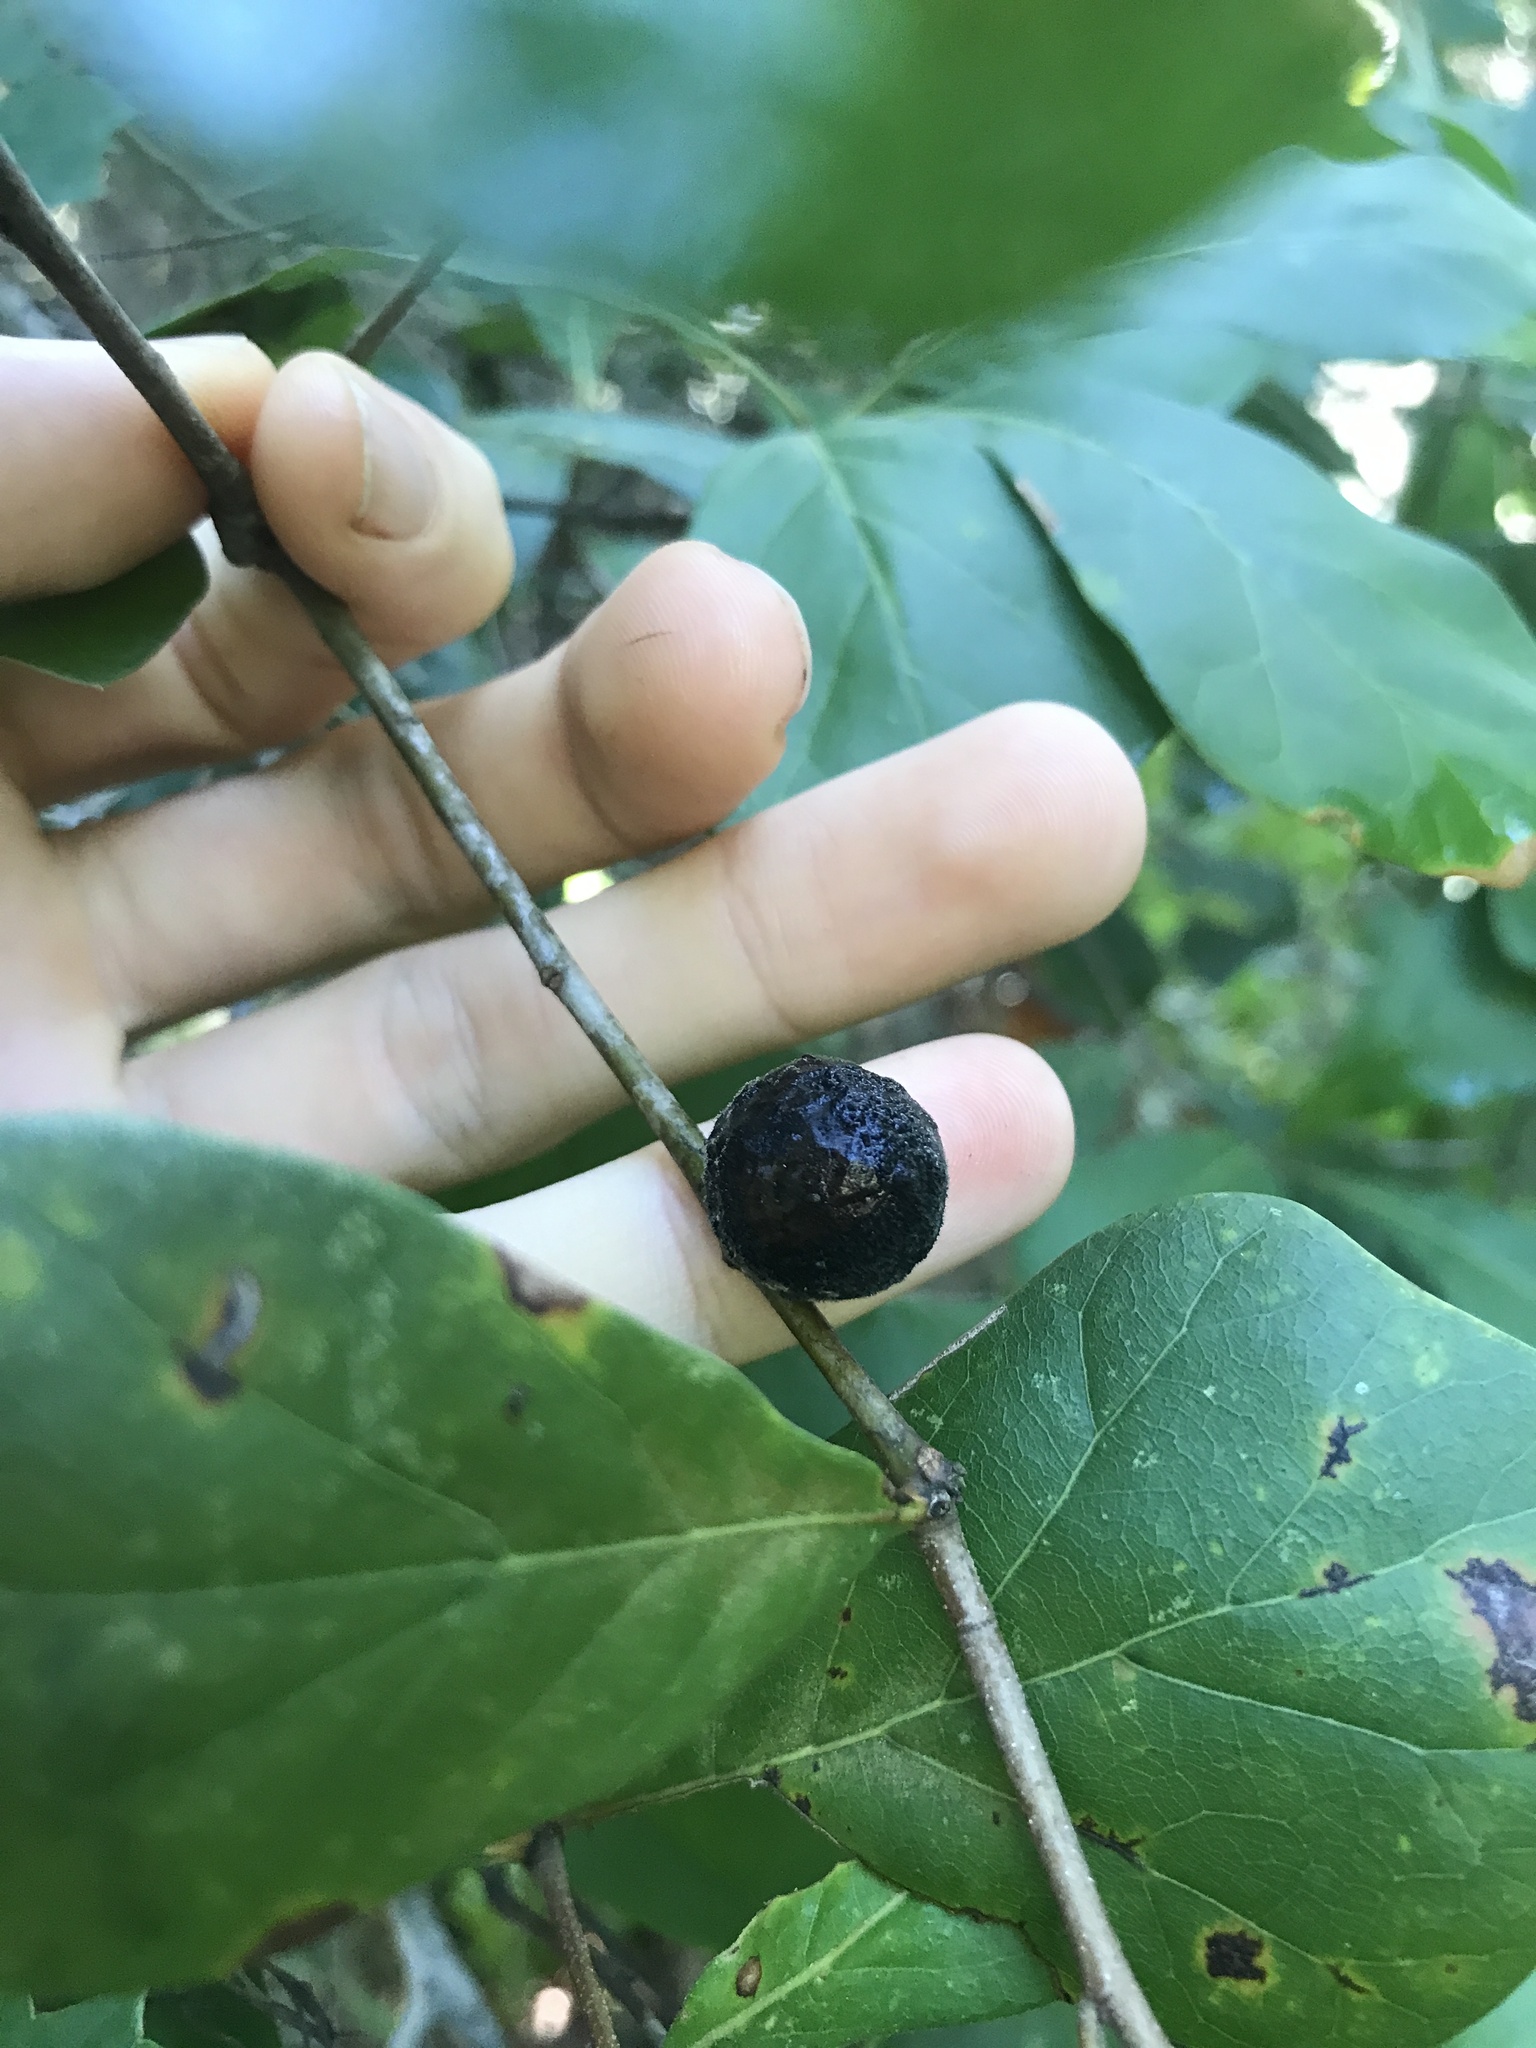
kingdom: Animalia
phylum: Arthropoda
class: Insecta
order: Hymenoptera
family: Cynipidae
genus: Amphibolips
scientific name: Amphibolips
